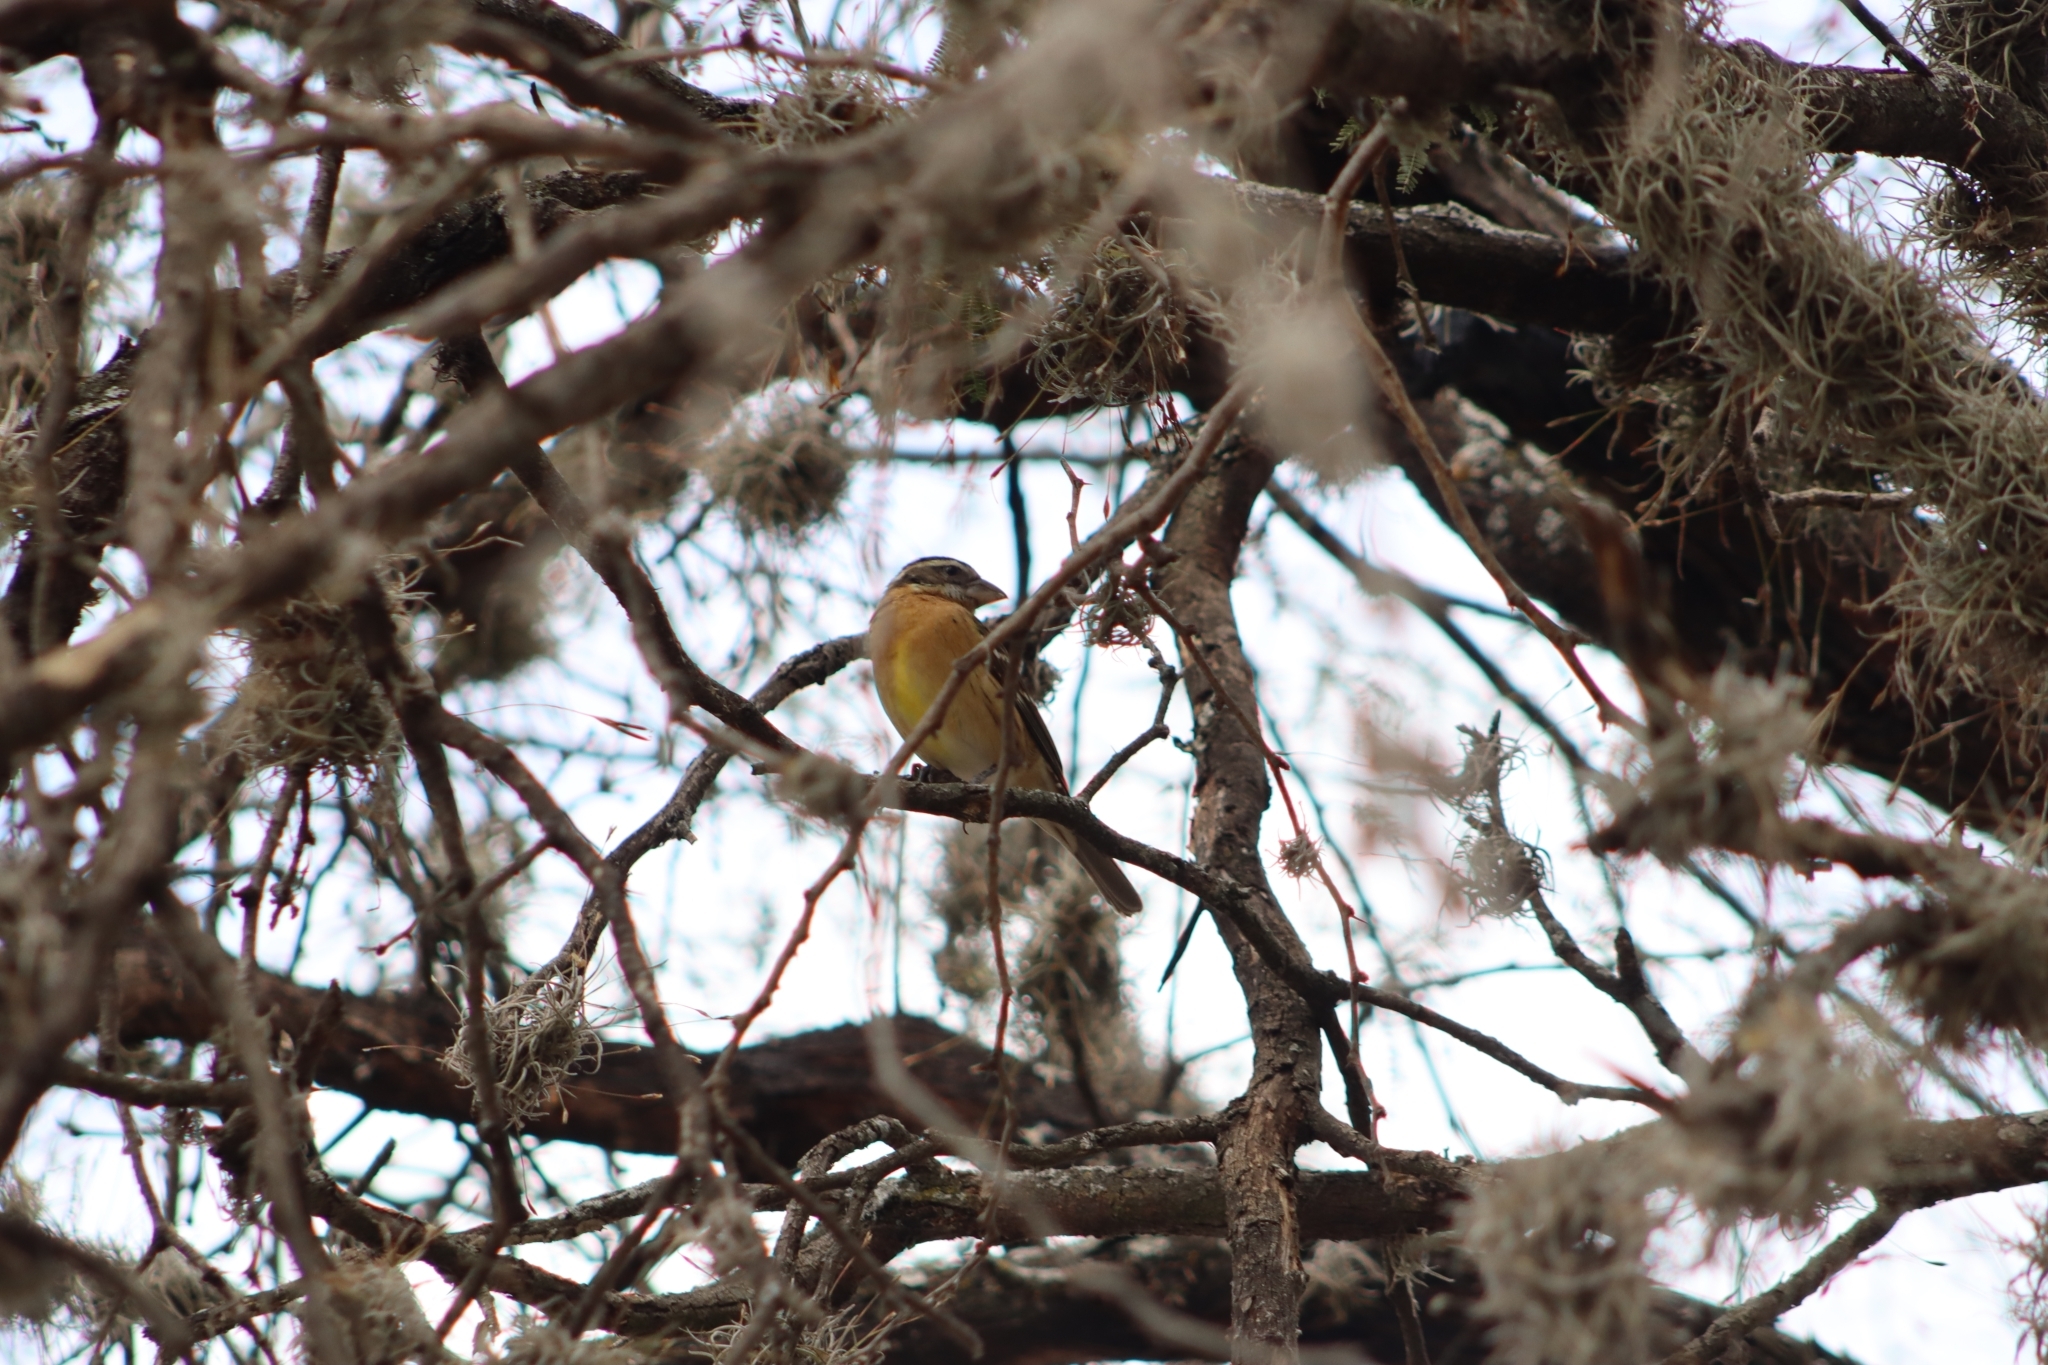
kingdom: Animalia
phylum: Chordata
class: Aves
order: Passeriformes
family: Cardinalidae
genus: Pheucticus
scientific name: Pheucticus melanocephalus
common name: Black-headed grosbeak
